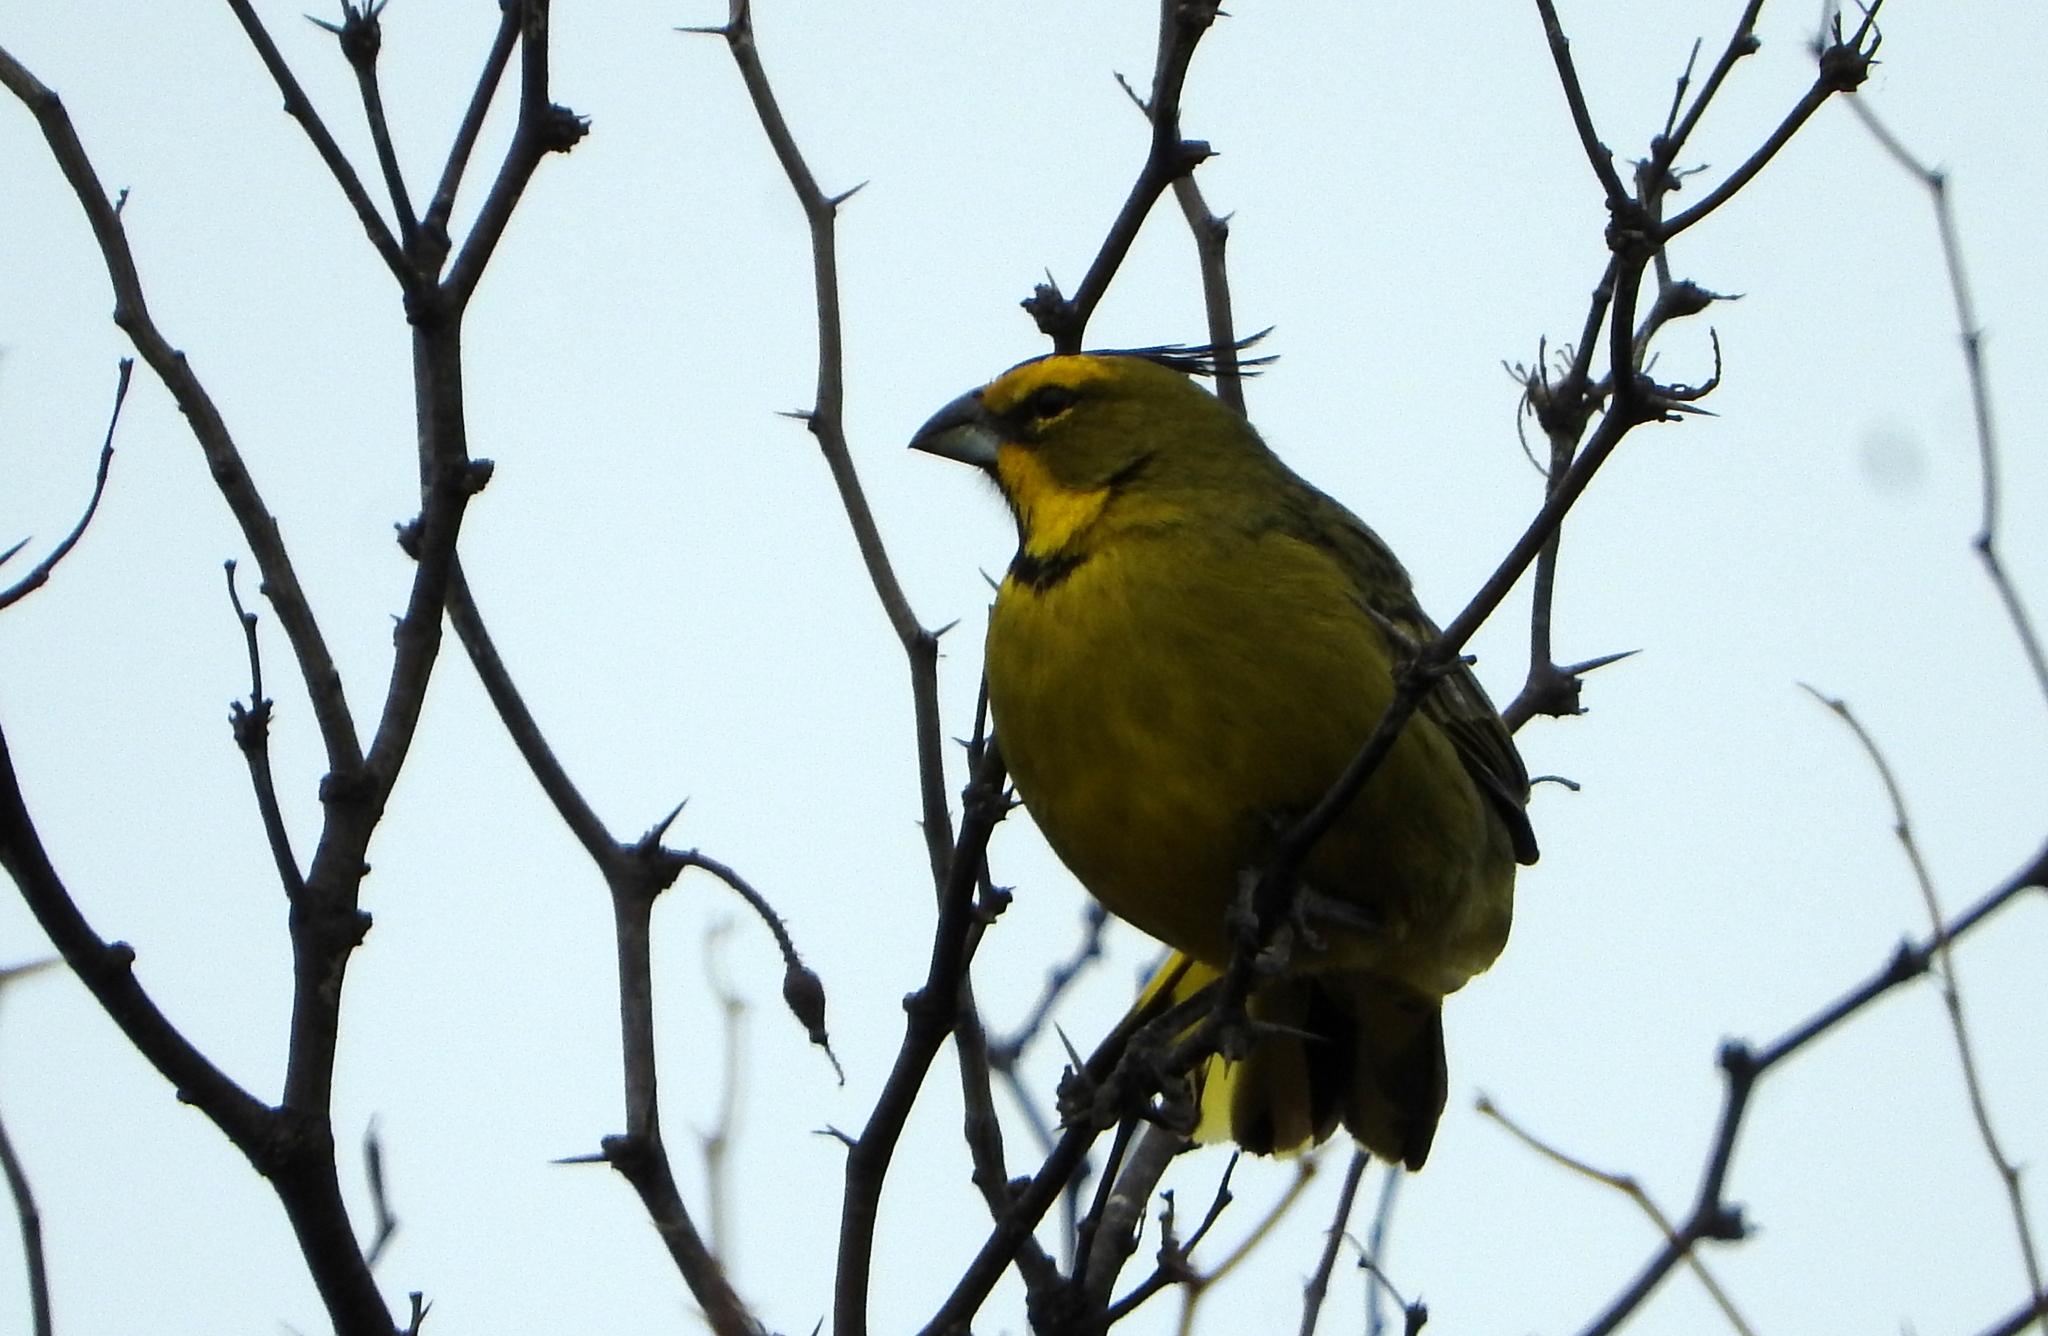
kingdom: Animalia
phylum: Chordata
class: Aves
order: Passeriformes
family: Thraupidae
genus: Gubernatrix
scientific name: Gubernatrix cristata
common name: Yellow cardinal
